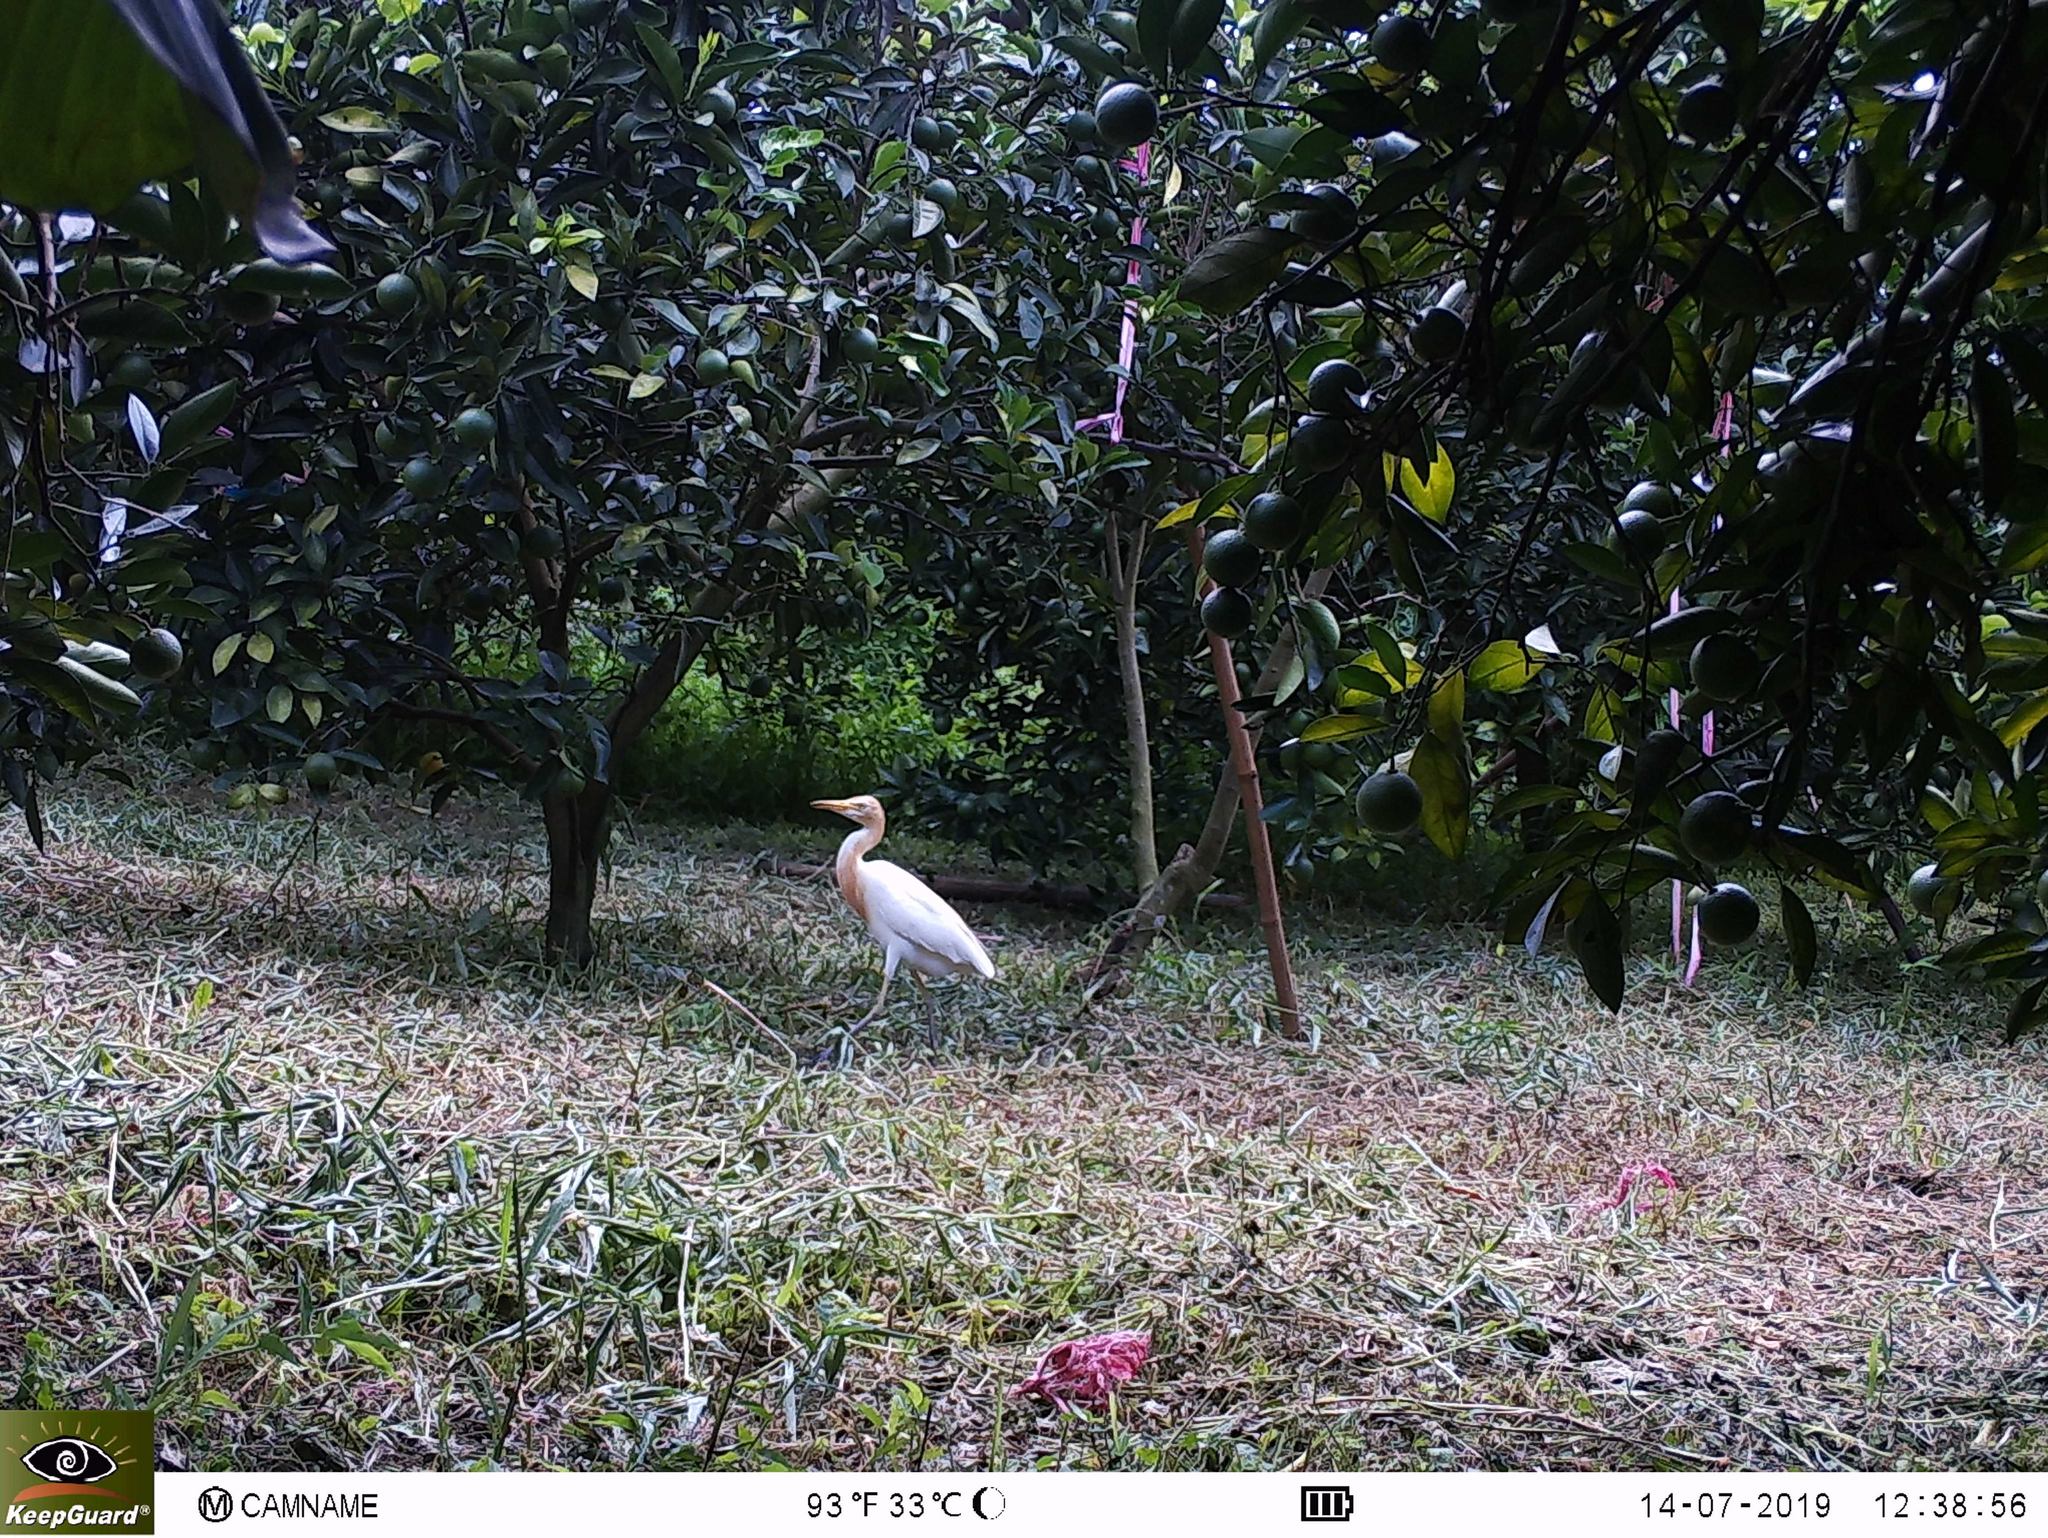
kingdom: Animalia
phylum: Chordata
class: Aves
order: Pelecaniformes
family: Ardeidae
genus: Bubulcus
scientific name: Bubulcus coromandus
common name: Eastern cattle egret
